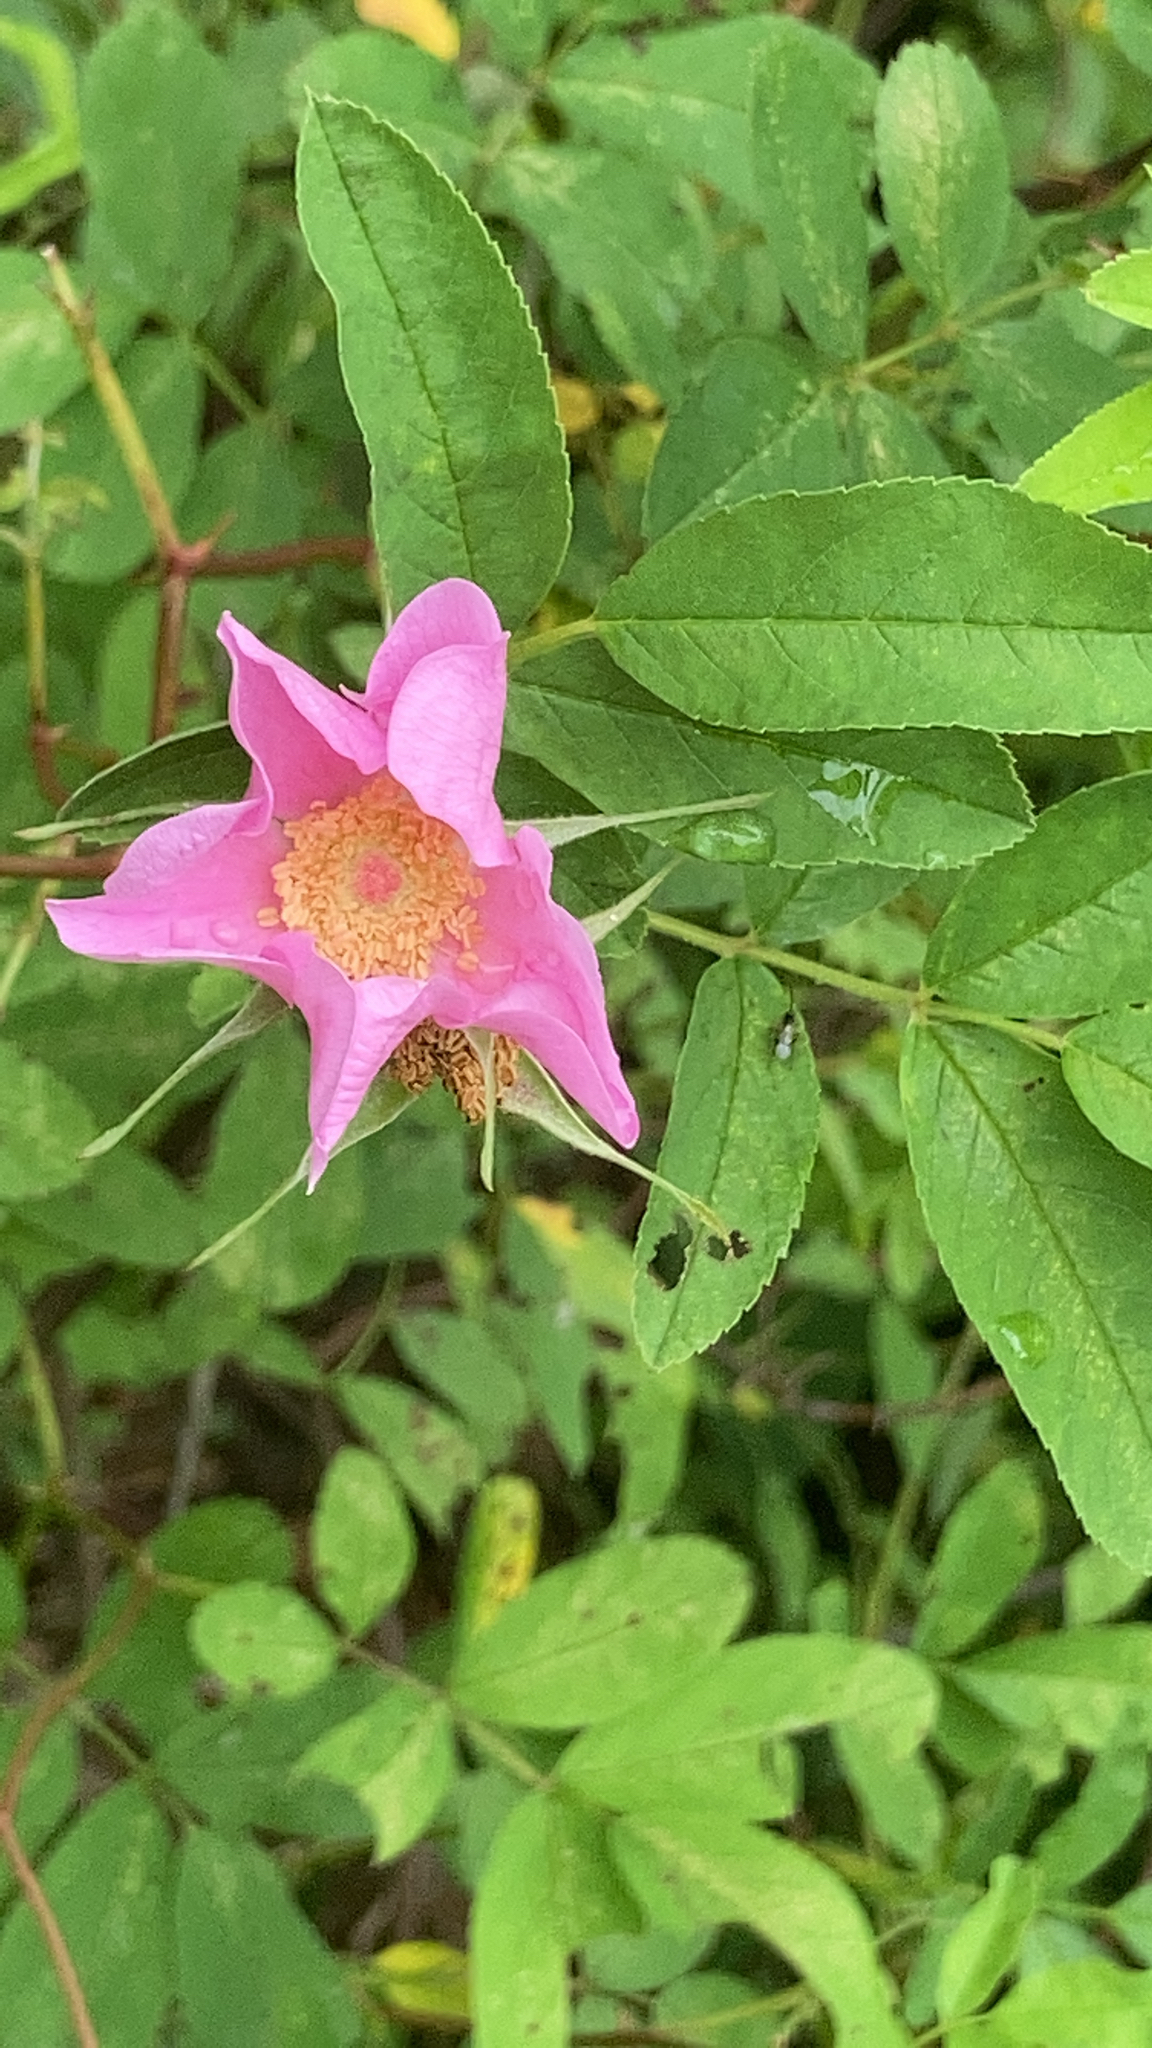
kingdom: Plantae
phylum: Tracheophyta
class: Magnoliopsida
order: Rosales
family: Rosaceae
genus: Rosa
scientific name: Rosa palustris
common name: Swamp rose
